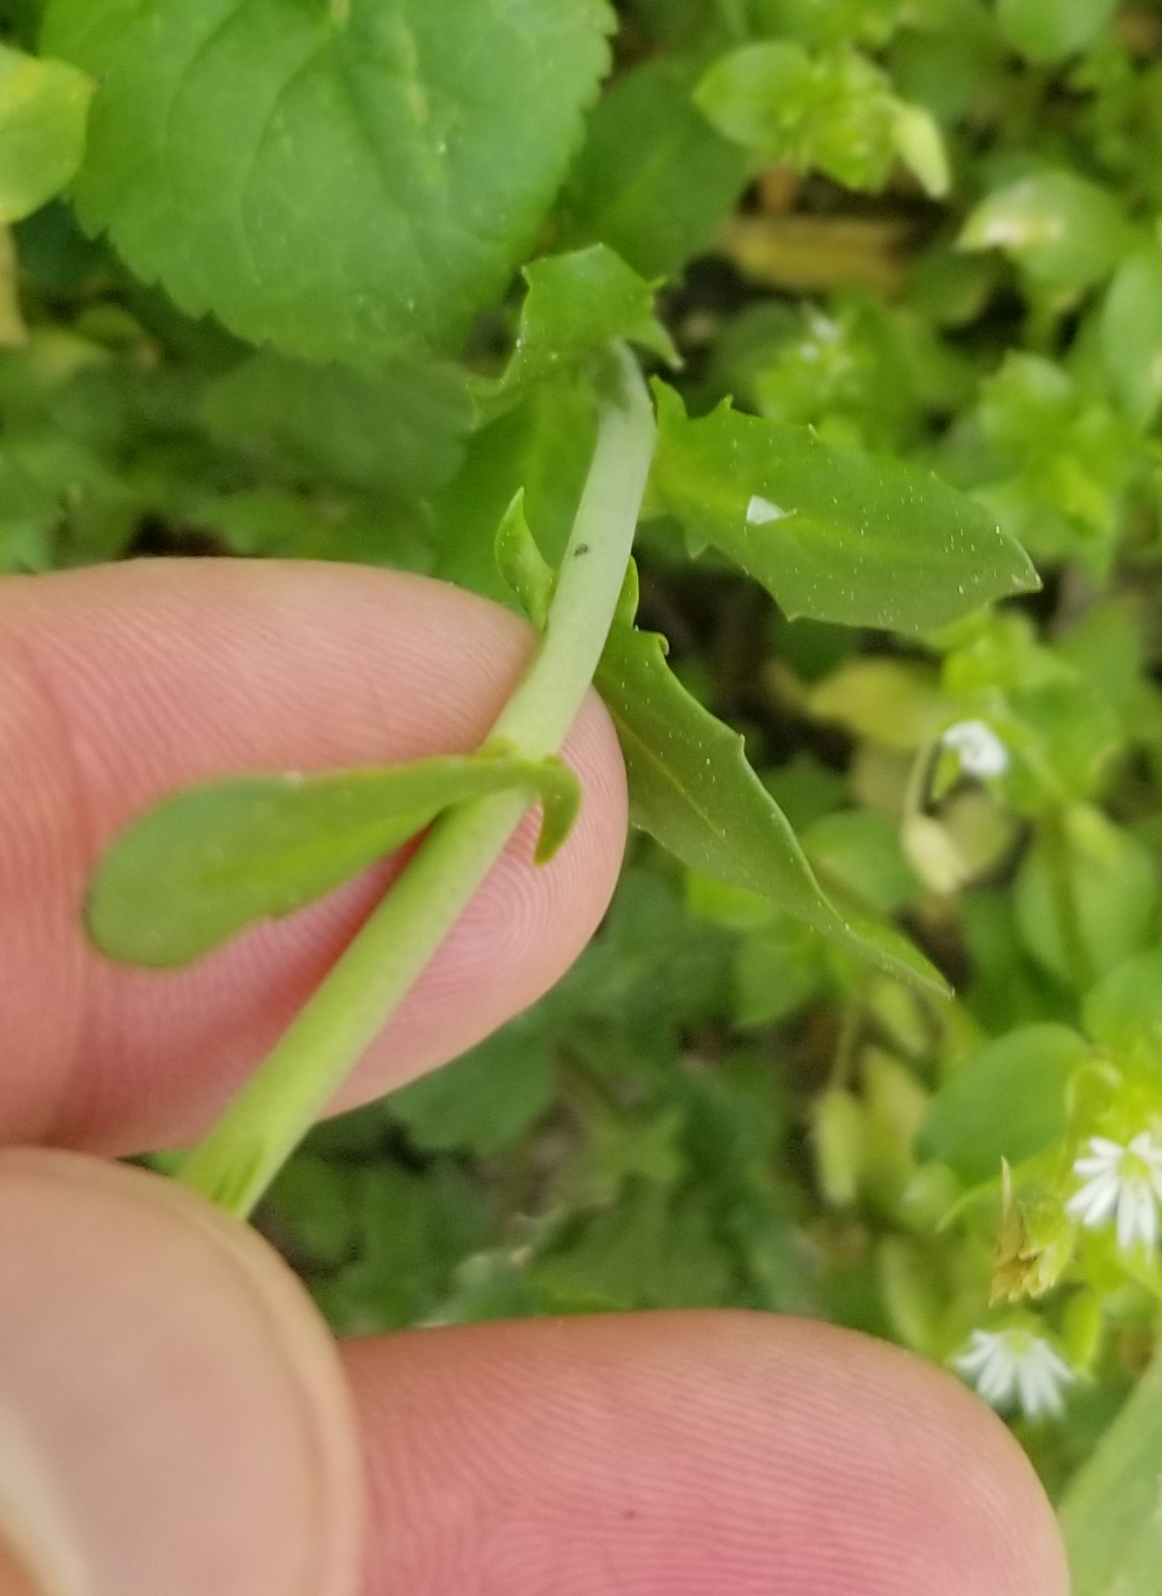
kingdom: Plantae
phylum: Tracheophyta
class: Magnoliopsida
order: Brassicales
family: Brassicaceae
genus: Mummenhoffia
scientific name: Mummenhoffia alliacea
